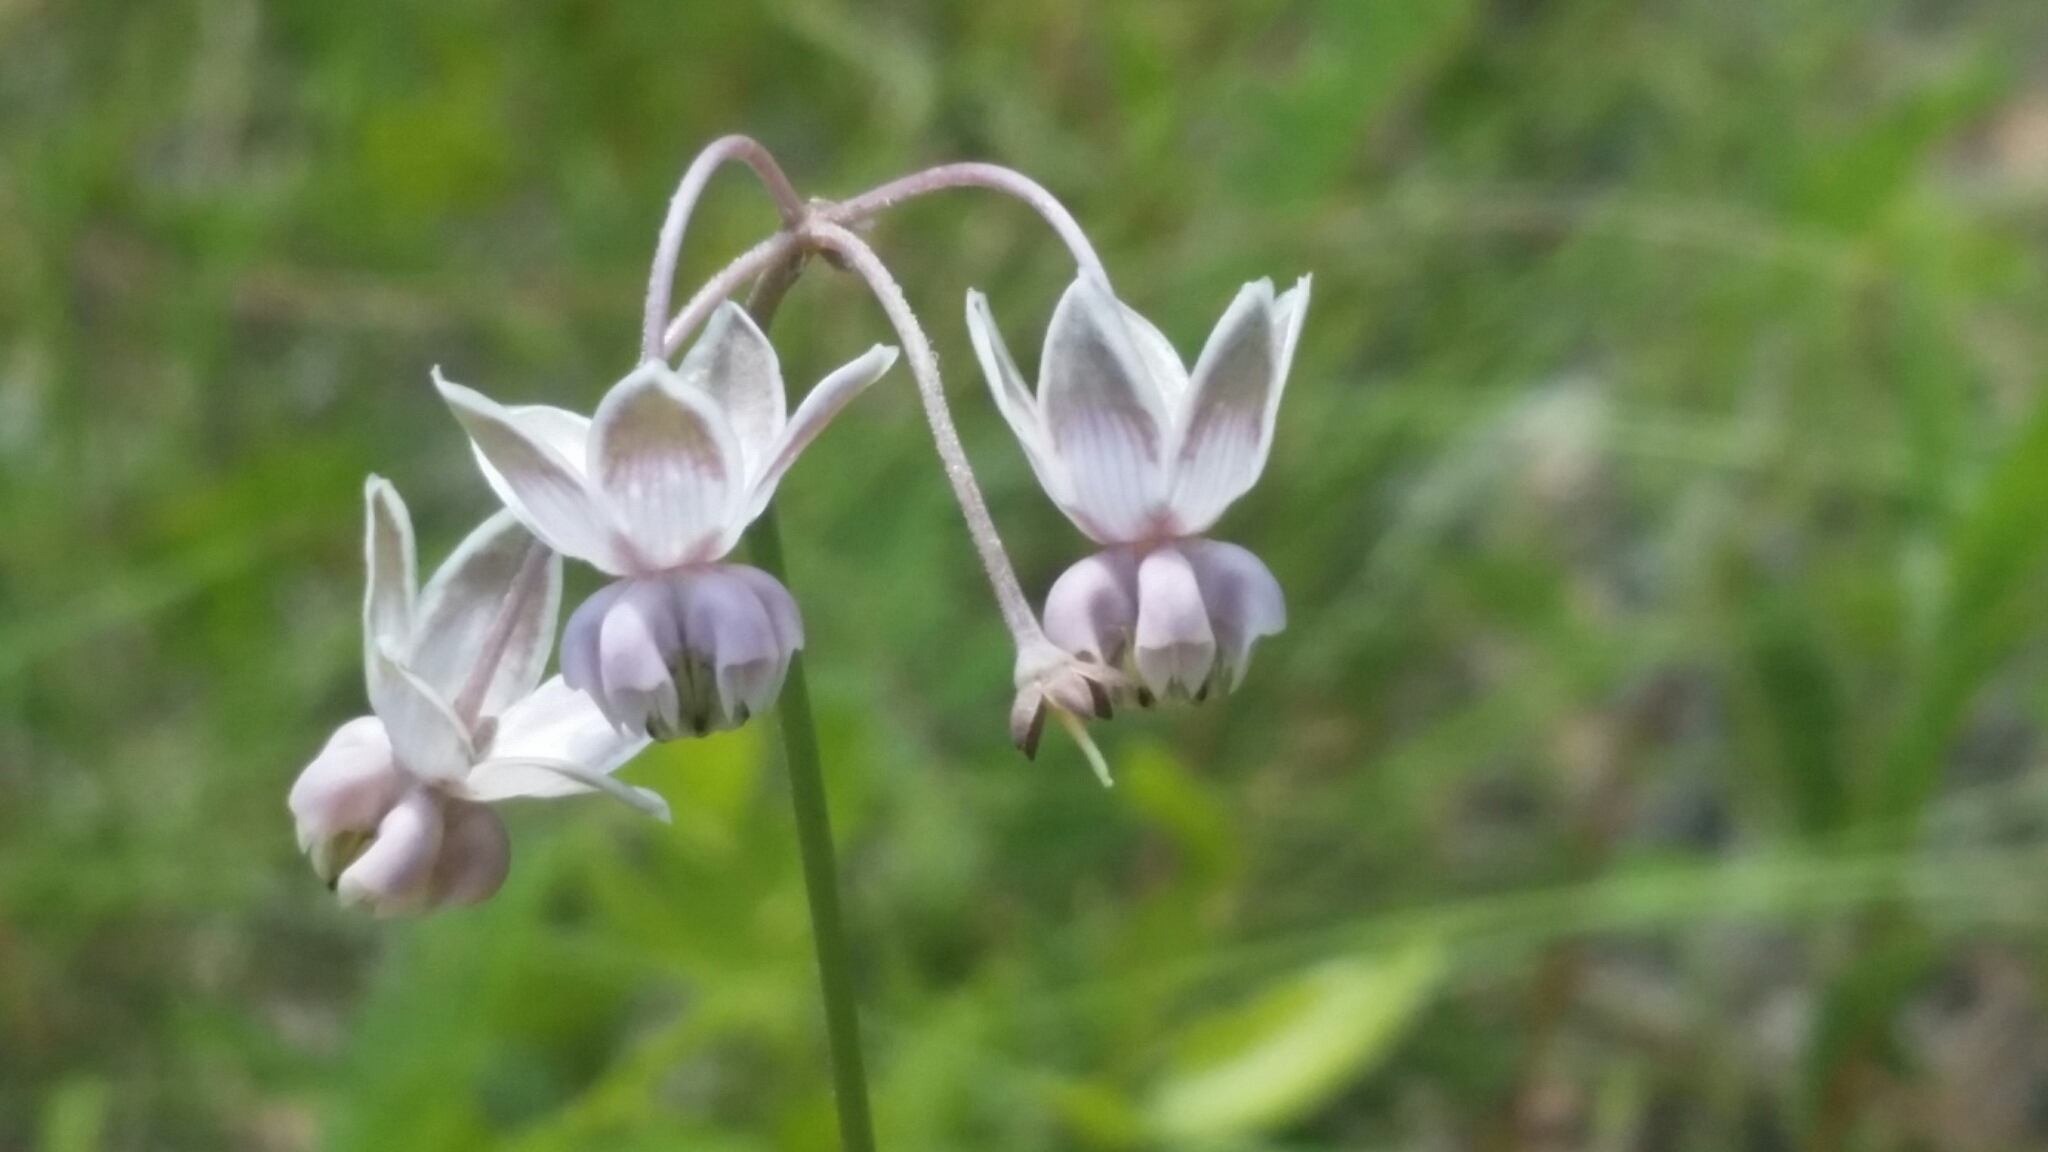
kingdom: Plantae
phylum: Tracheophyta
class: Magnoliopsida
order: Gentianales
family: Apocynaceae
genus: Asclepias
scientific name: Asclepias cinerea
